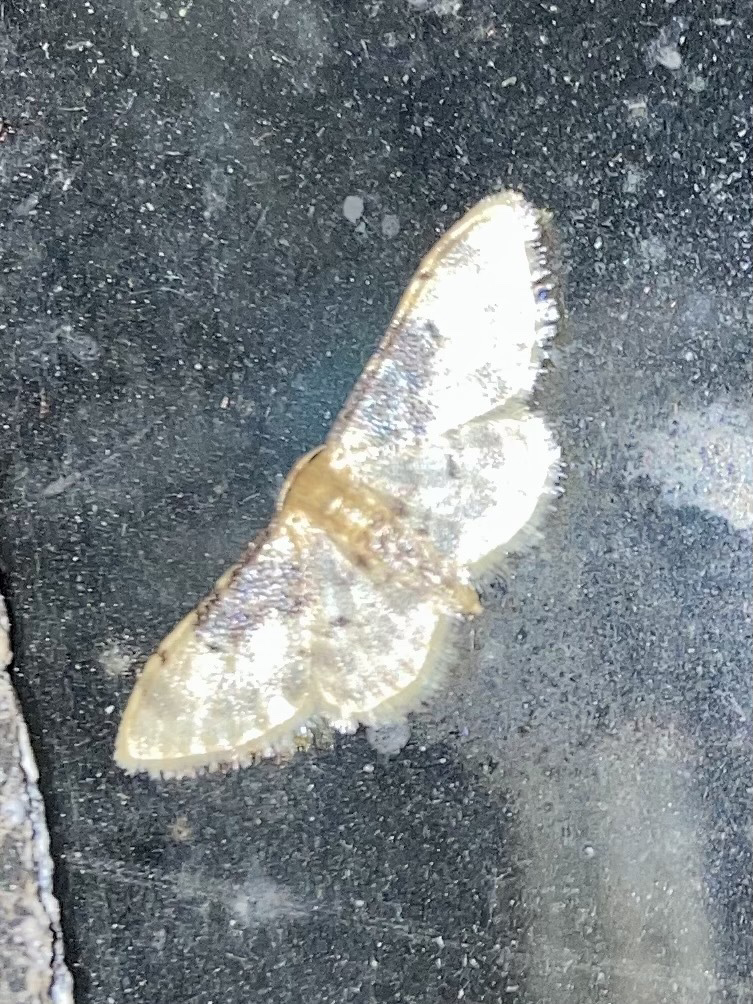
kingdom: Animalia
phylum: Arthropoda
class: Insecta
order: Lepidoptera
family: Geometridae
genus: Idaea
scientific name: Idaea filicata
